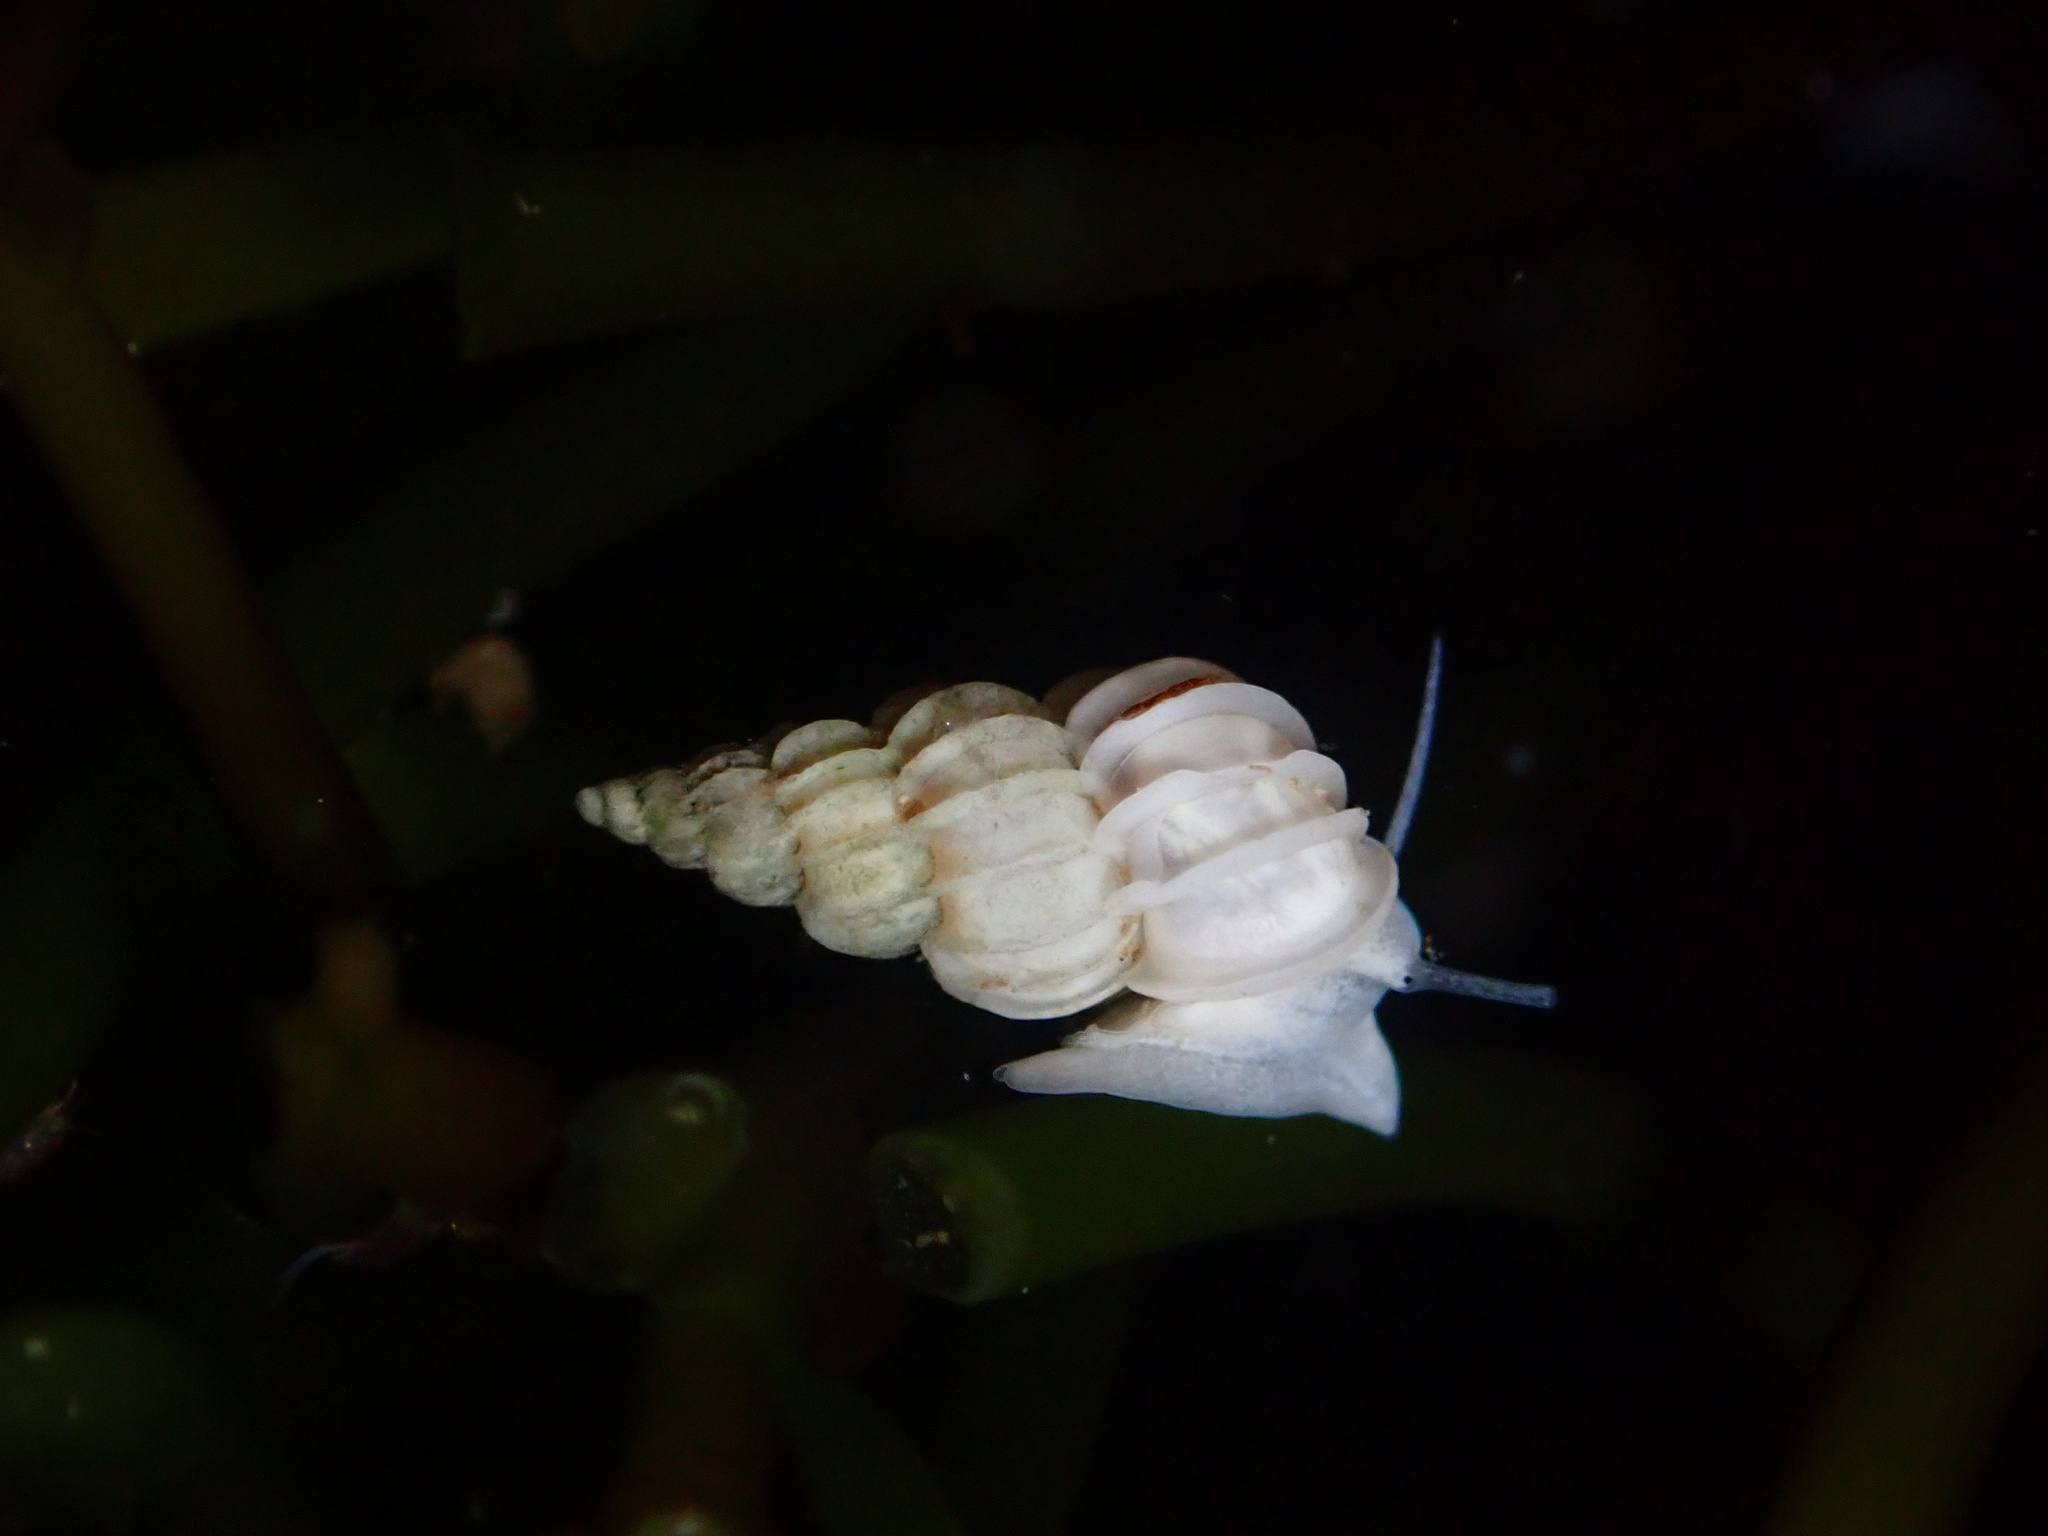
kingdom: Animalia
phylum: Mollusca
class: Gastropoda
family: Epitoniidae
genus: Epitonium
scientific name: Epitonium tinctum
